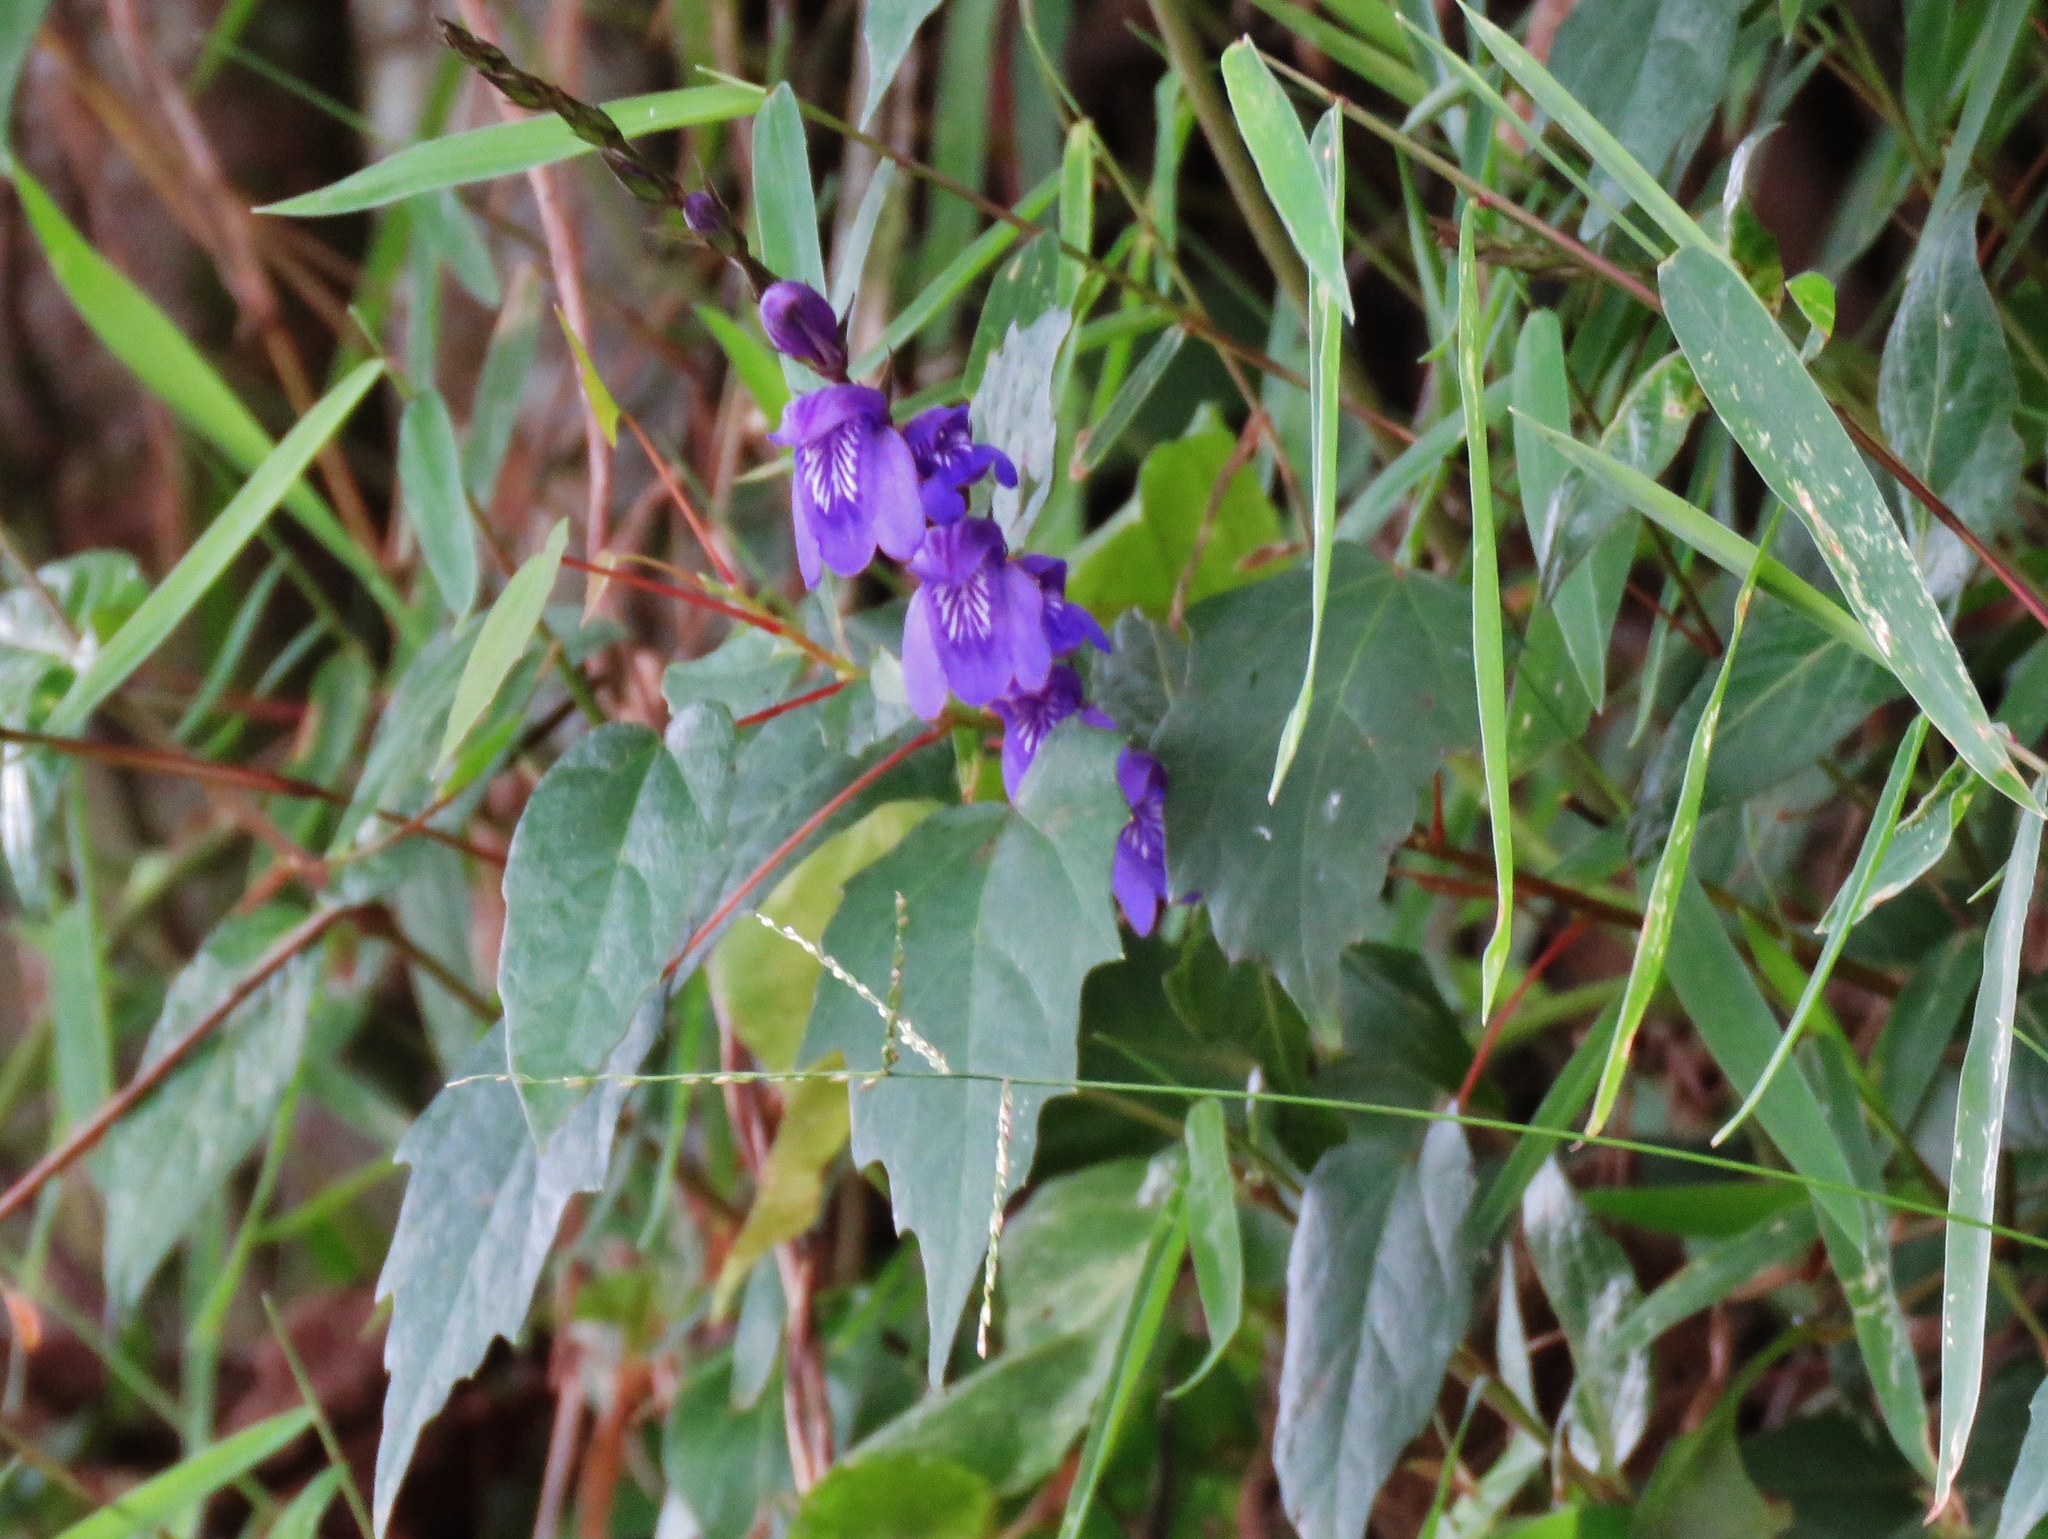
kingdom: Plantae
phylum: Tracheophyta
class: Magnoliopsida
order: Lamiales
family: Acanthaceae
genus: Justicia
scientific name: Justicia alpina
